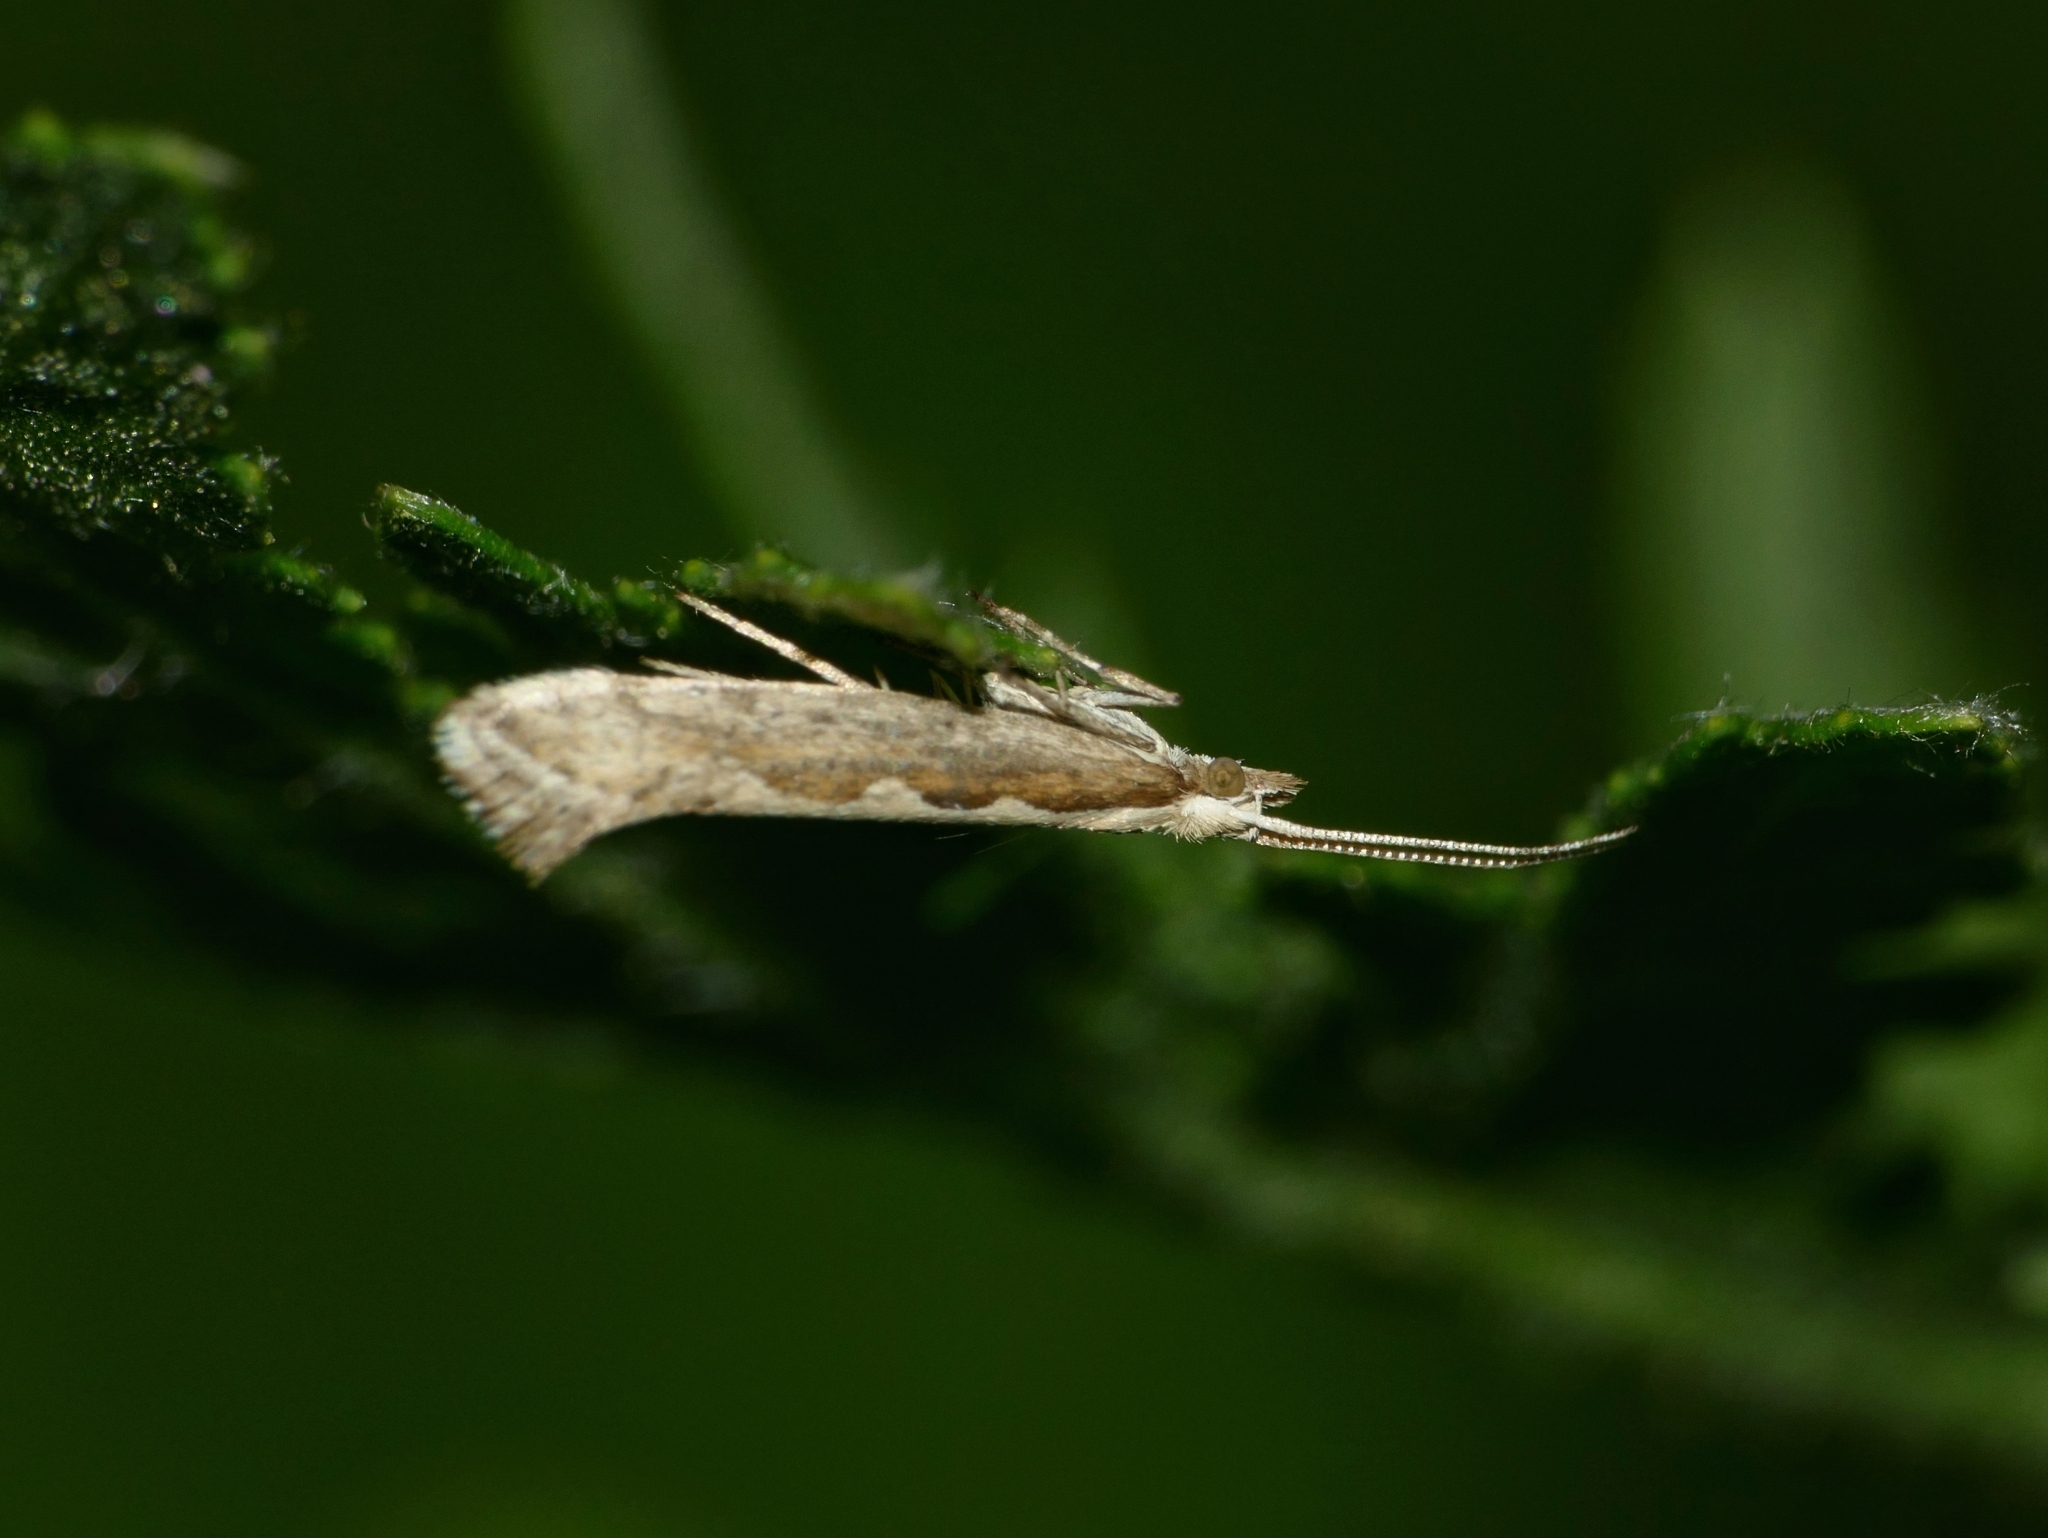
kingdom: Animalia
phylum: Arthropoda
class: Insecta
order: Lepidoptera
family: Plutellidae
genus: Plutella
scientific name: Plutella xylostella
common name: Diamond-back moth
